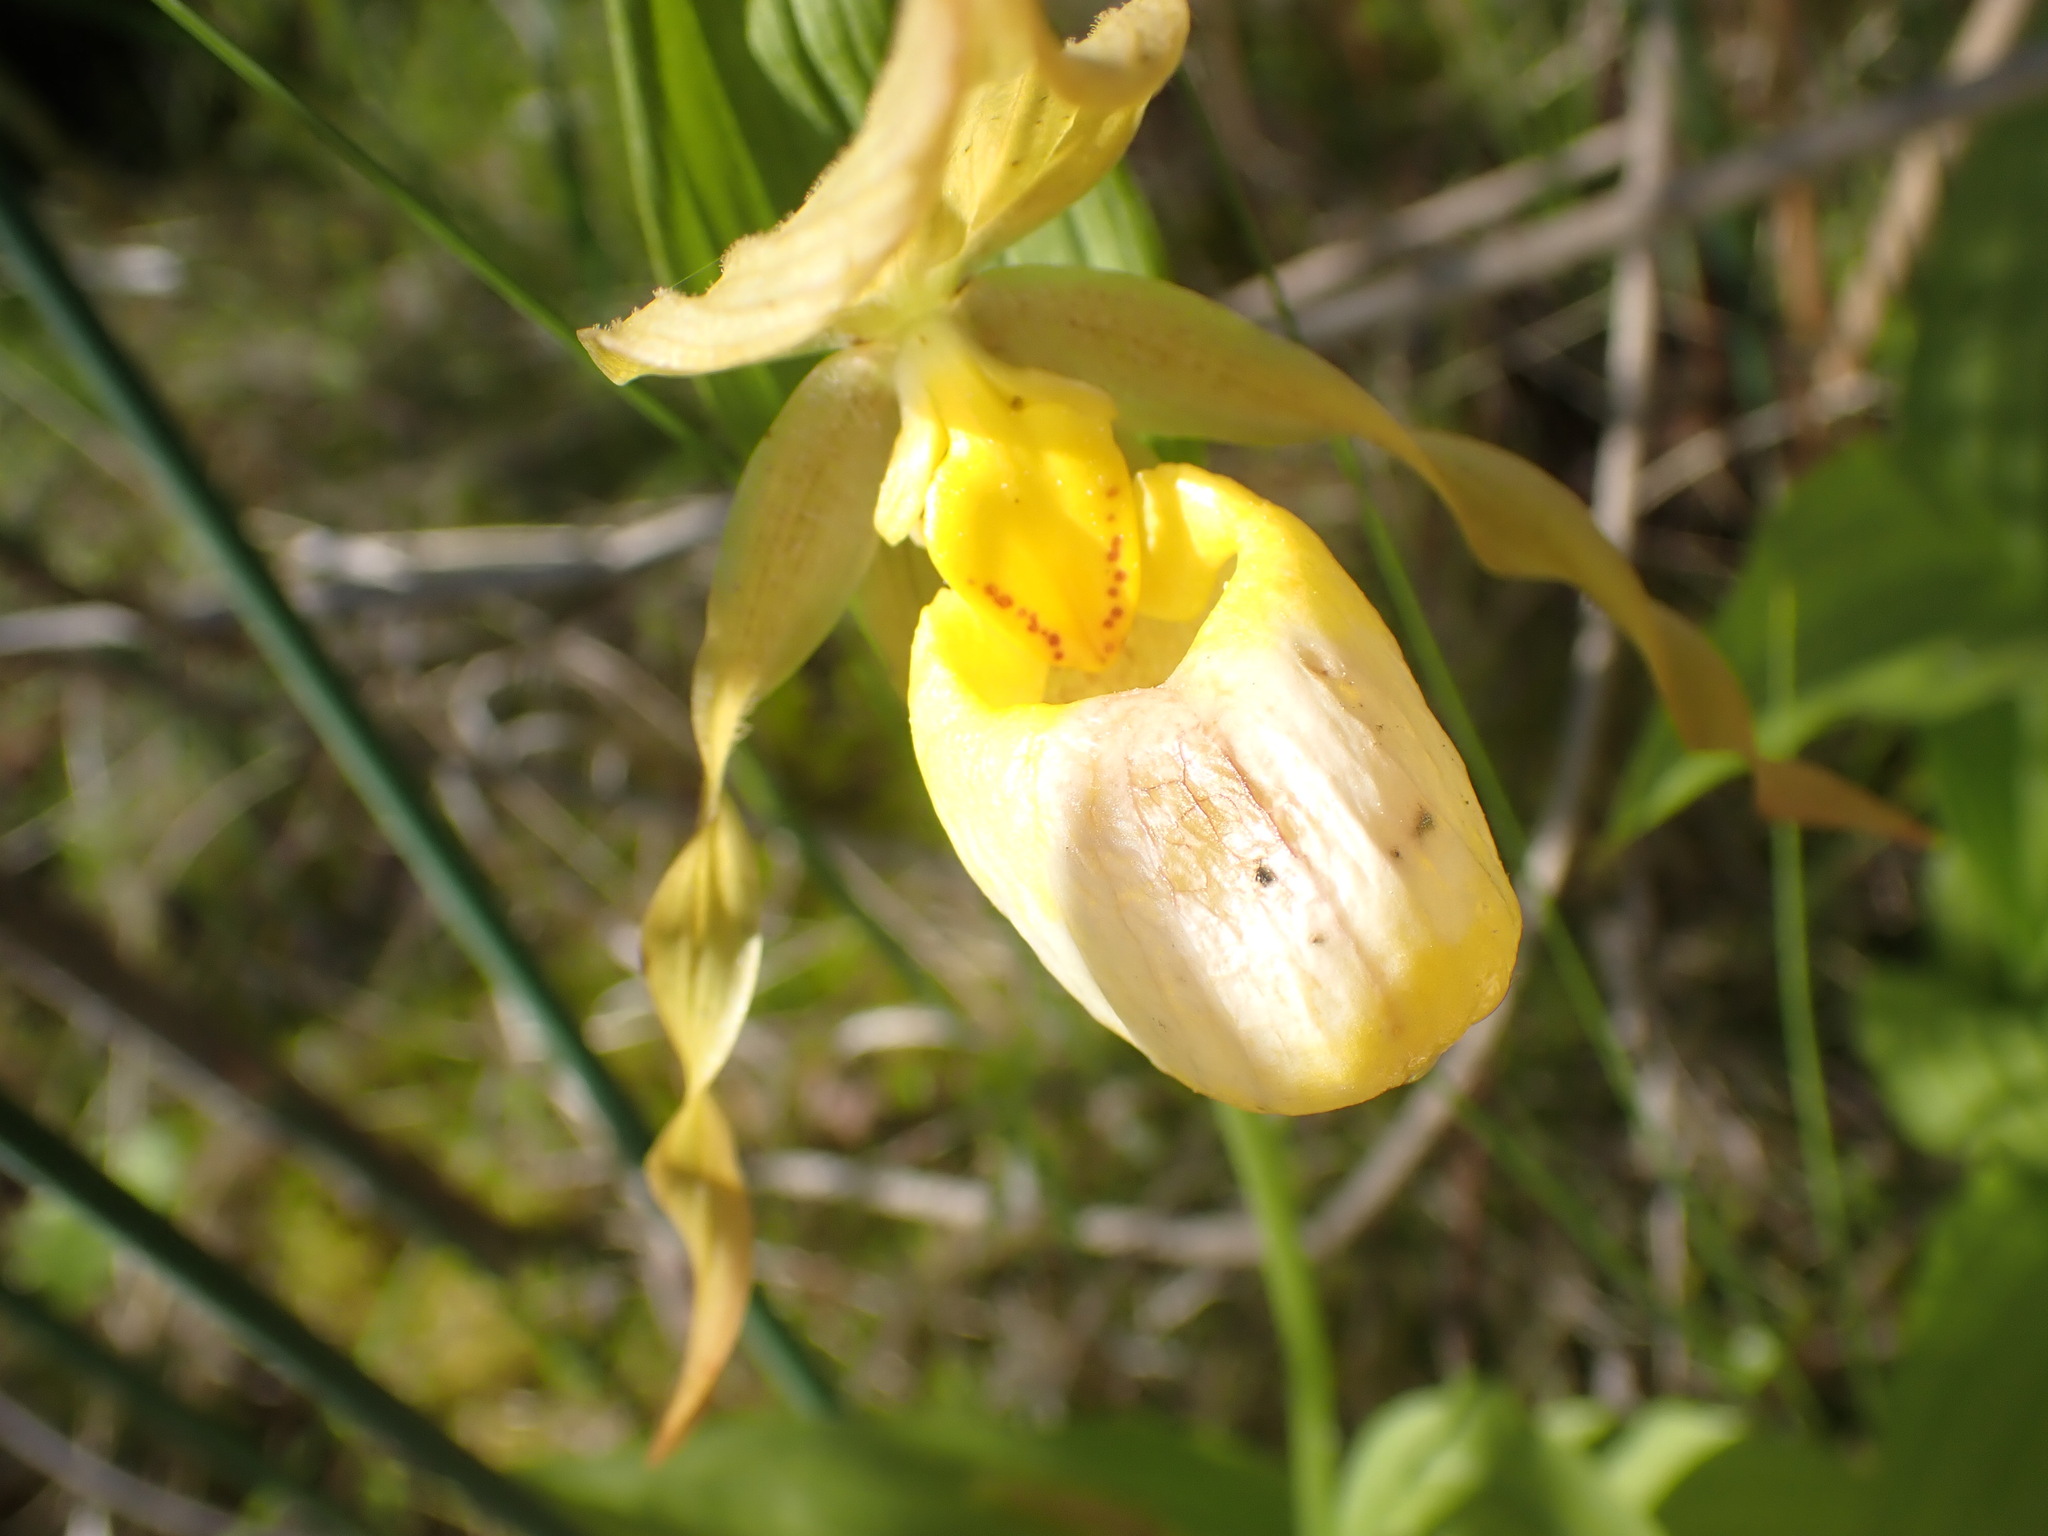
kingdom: Plantae
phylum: Tracheophyta
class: Liliopsida
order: Asparagales
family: Orchidaceae
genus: Cypripedium
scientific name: Cypripedium parviflorum
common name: American yellow lady's-slipper
